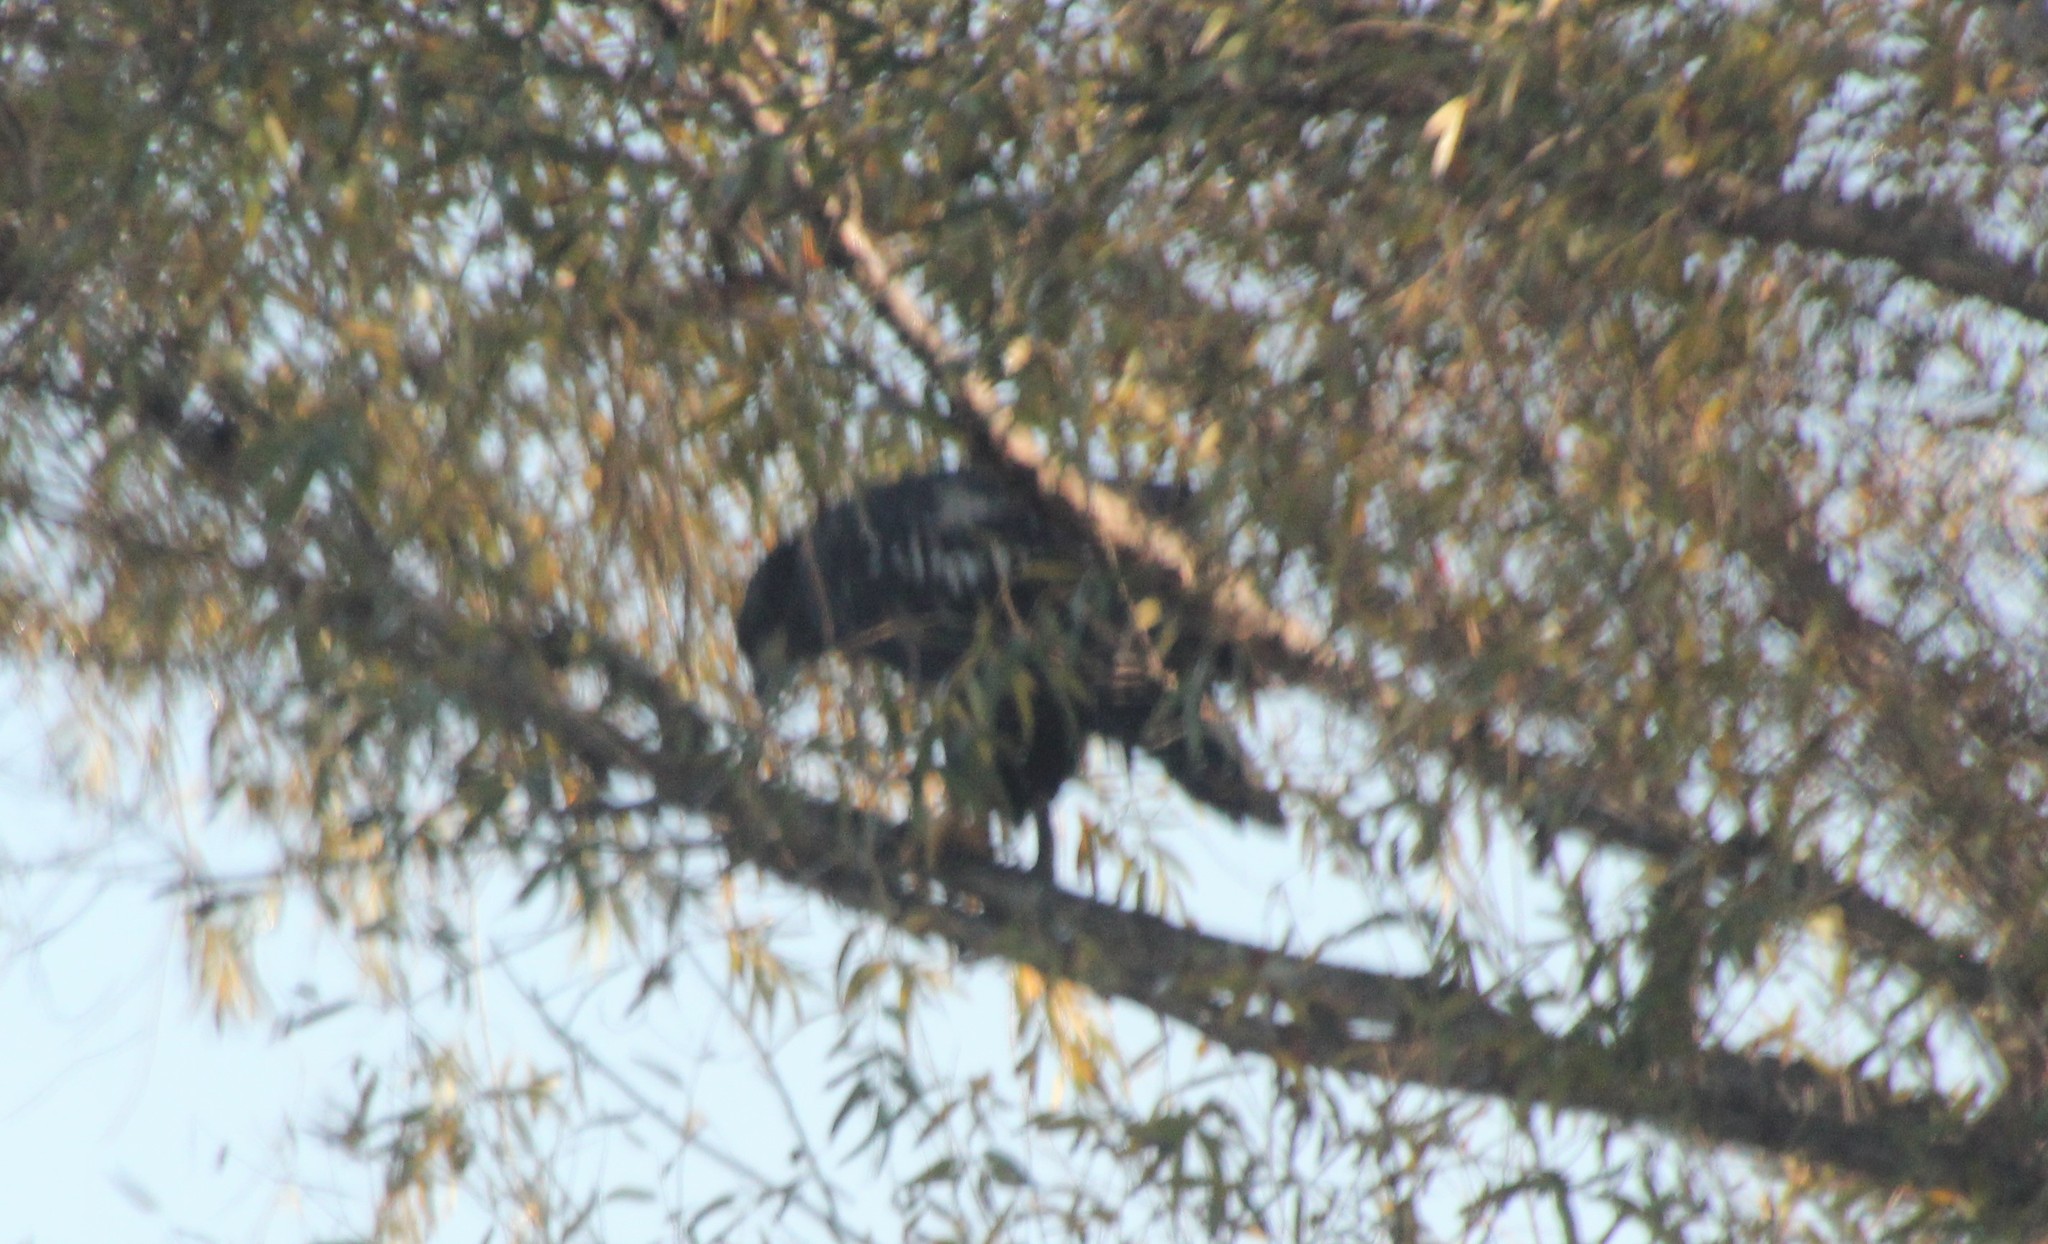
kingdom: Animalia
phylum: Chordata
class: Aves
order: Accipitriformes
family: Accipitridae
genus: Haliaeetus
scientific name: Haliaeetus leucocephalus
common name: Bald eagle
